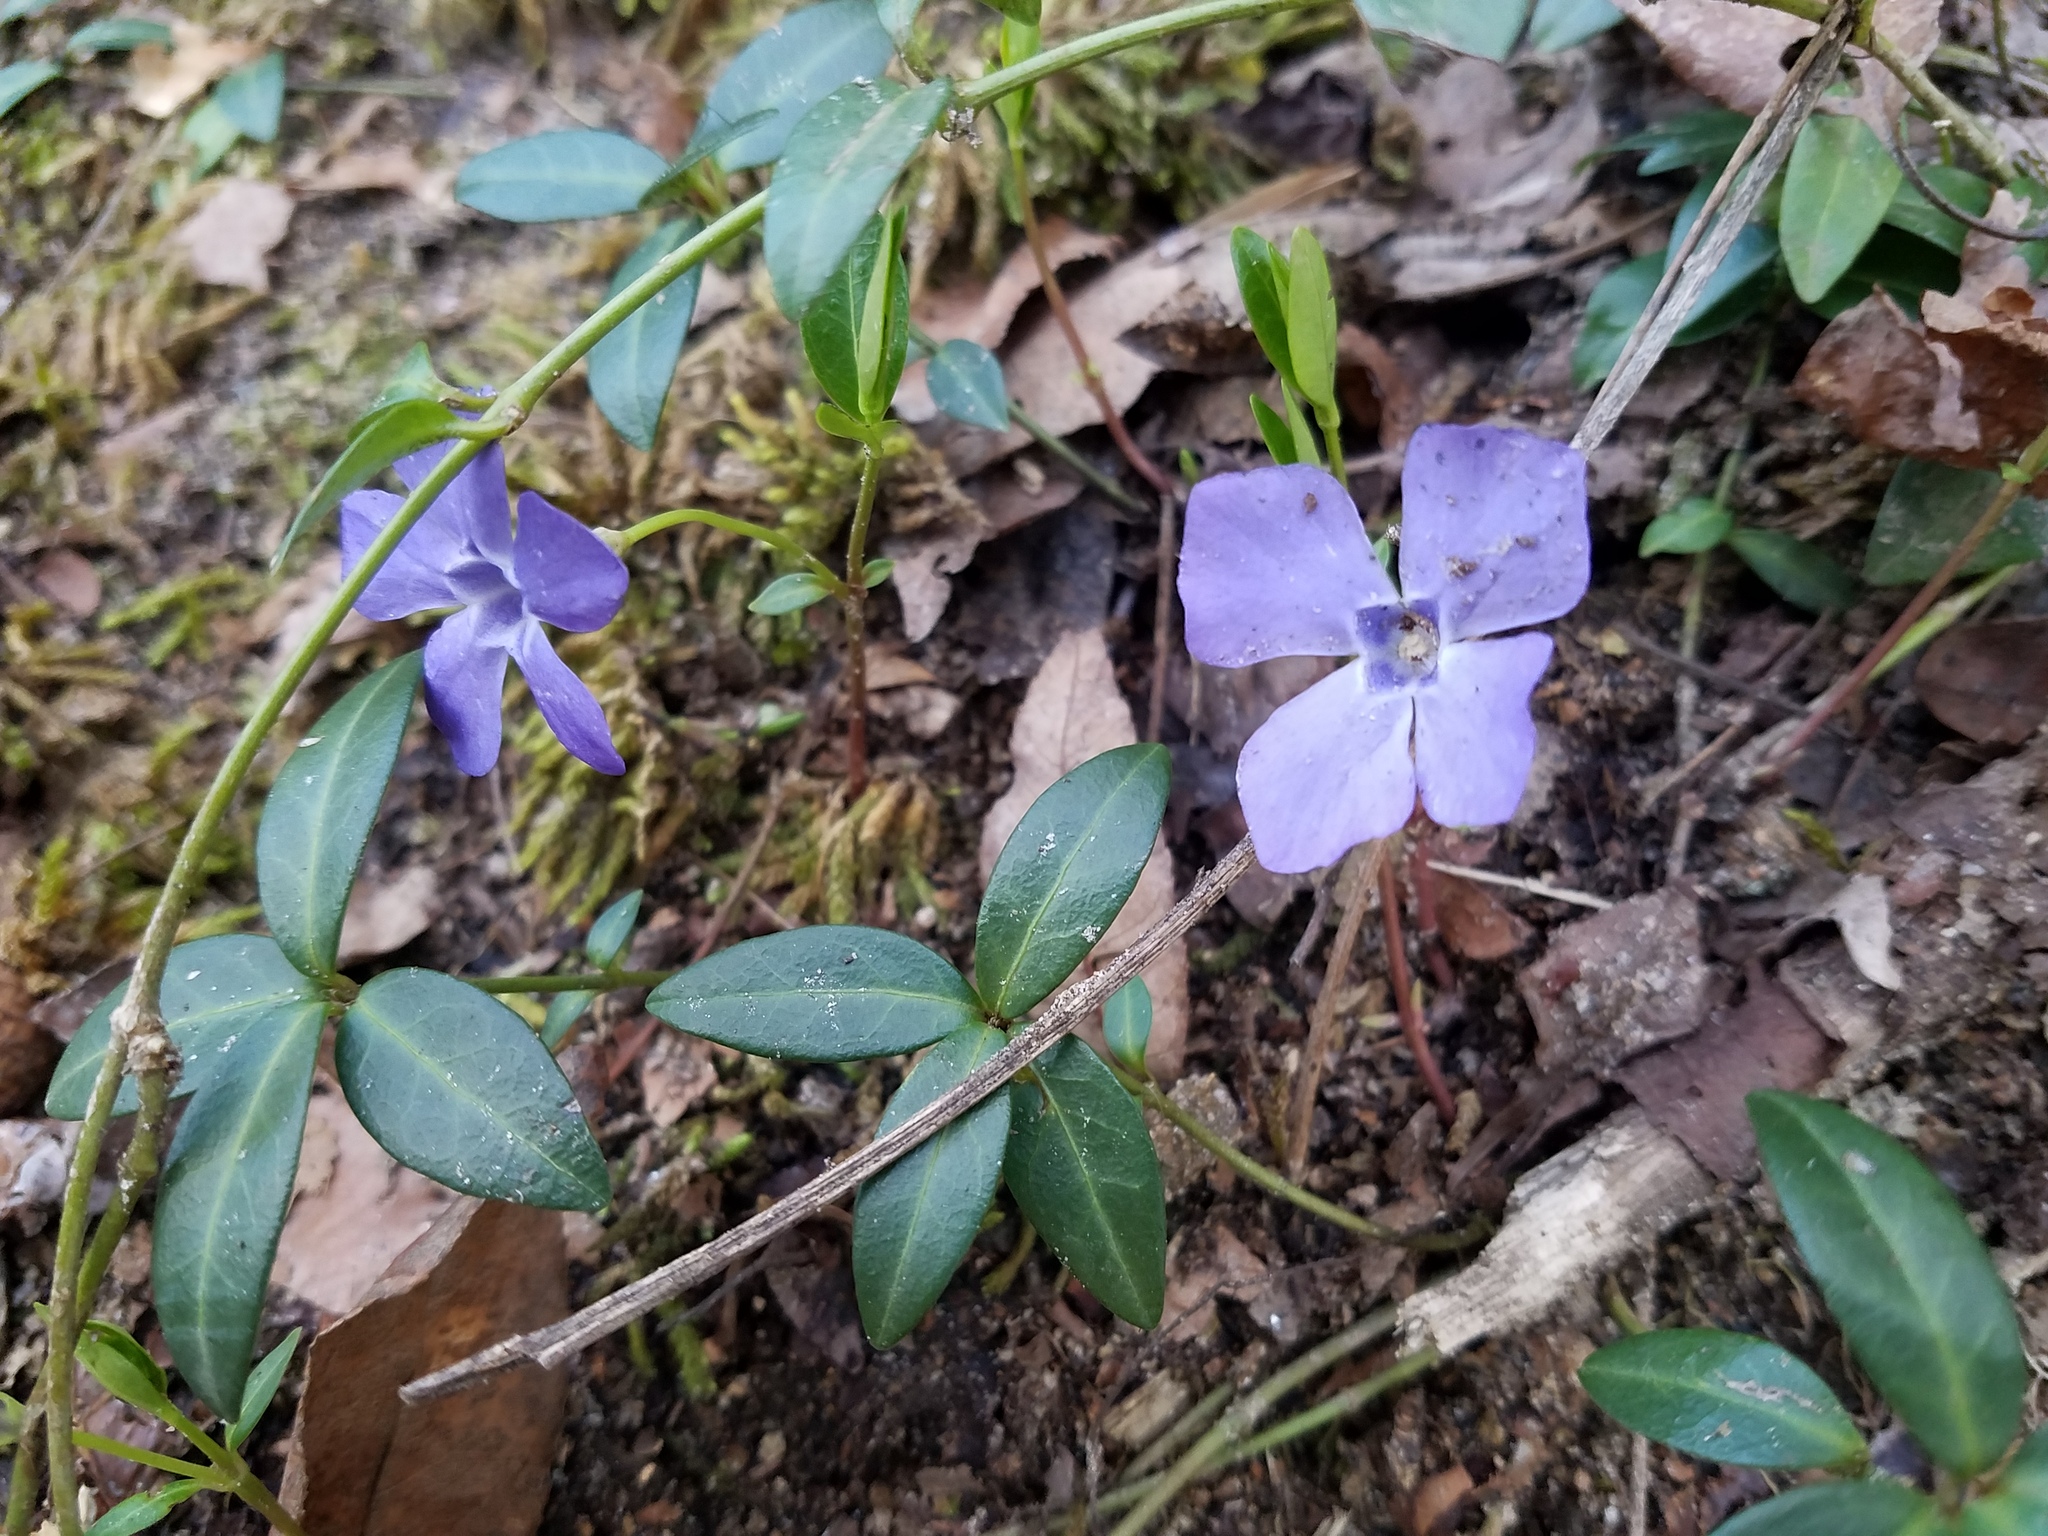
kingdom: Plantae
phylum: Tracheophyta
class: Magnoliopsida
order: Gentianales
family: Apocynaceae
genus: Vinca
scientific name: Vinca minor
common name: Lesser periwinkle
